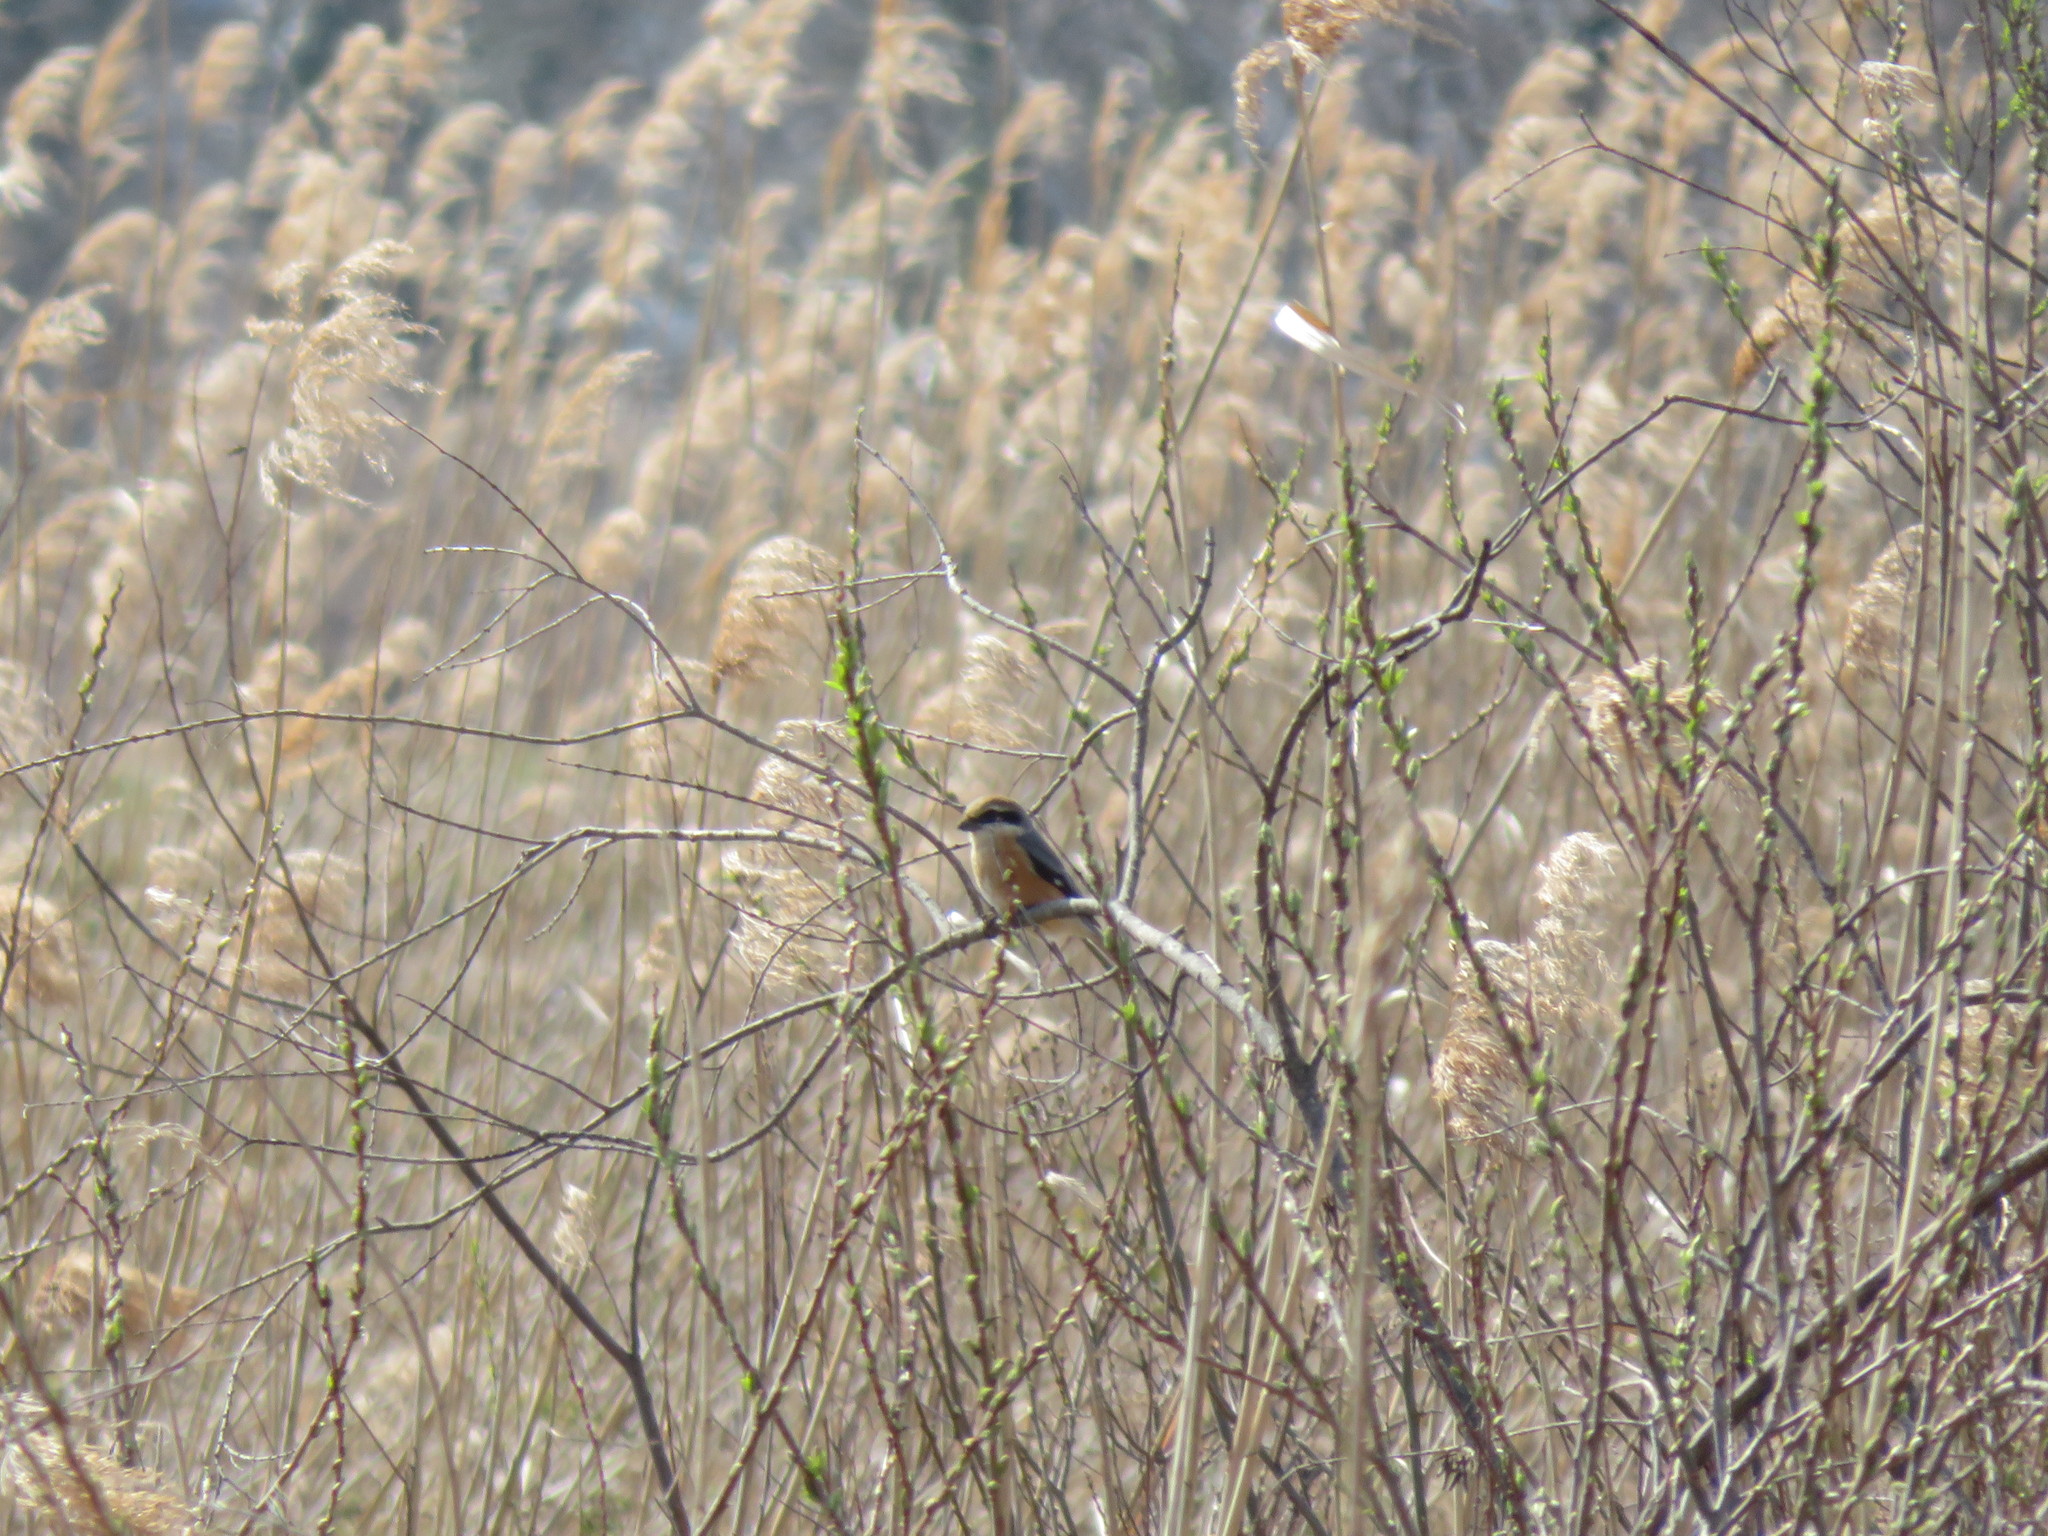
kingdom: Animalia
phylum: Chordata
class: Aves
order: Passeriformes
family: Laniidae
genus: Lanius
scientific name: Lanius bucephalus
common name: Bull-headed shrike
